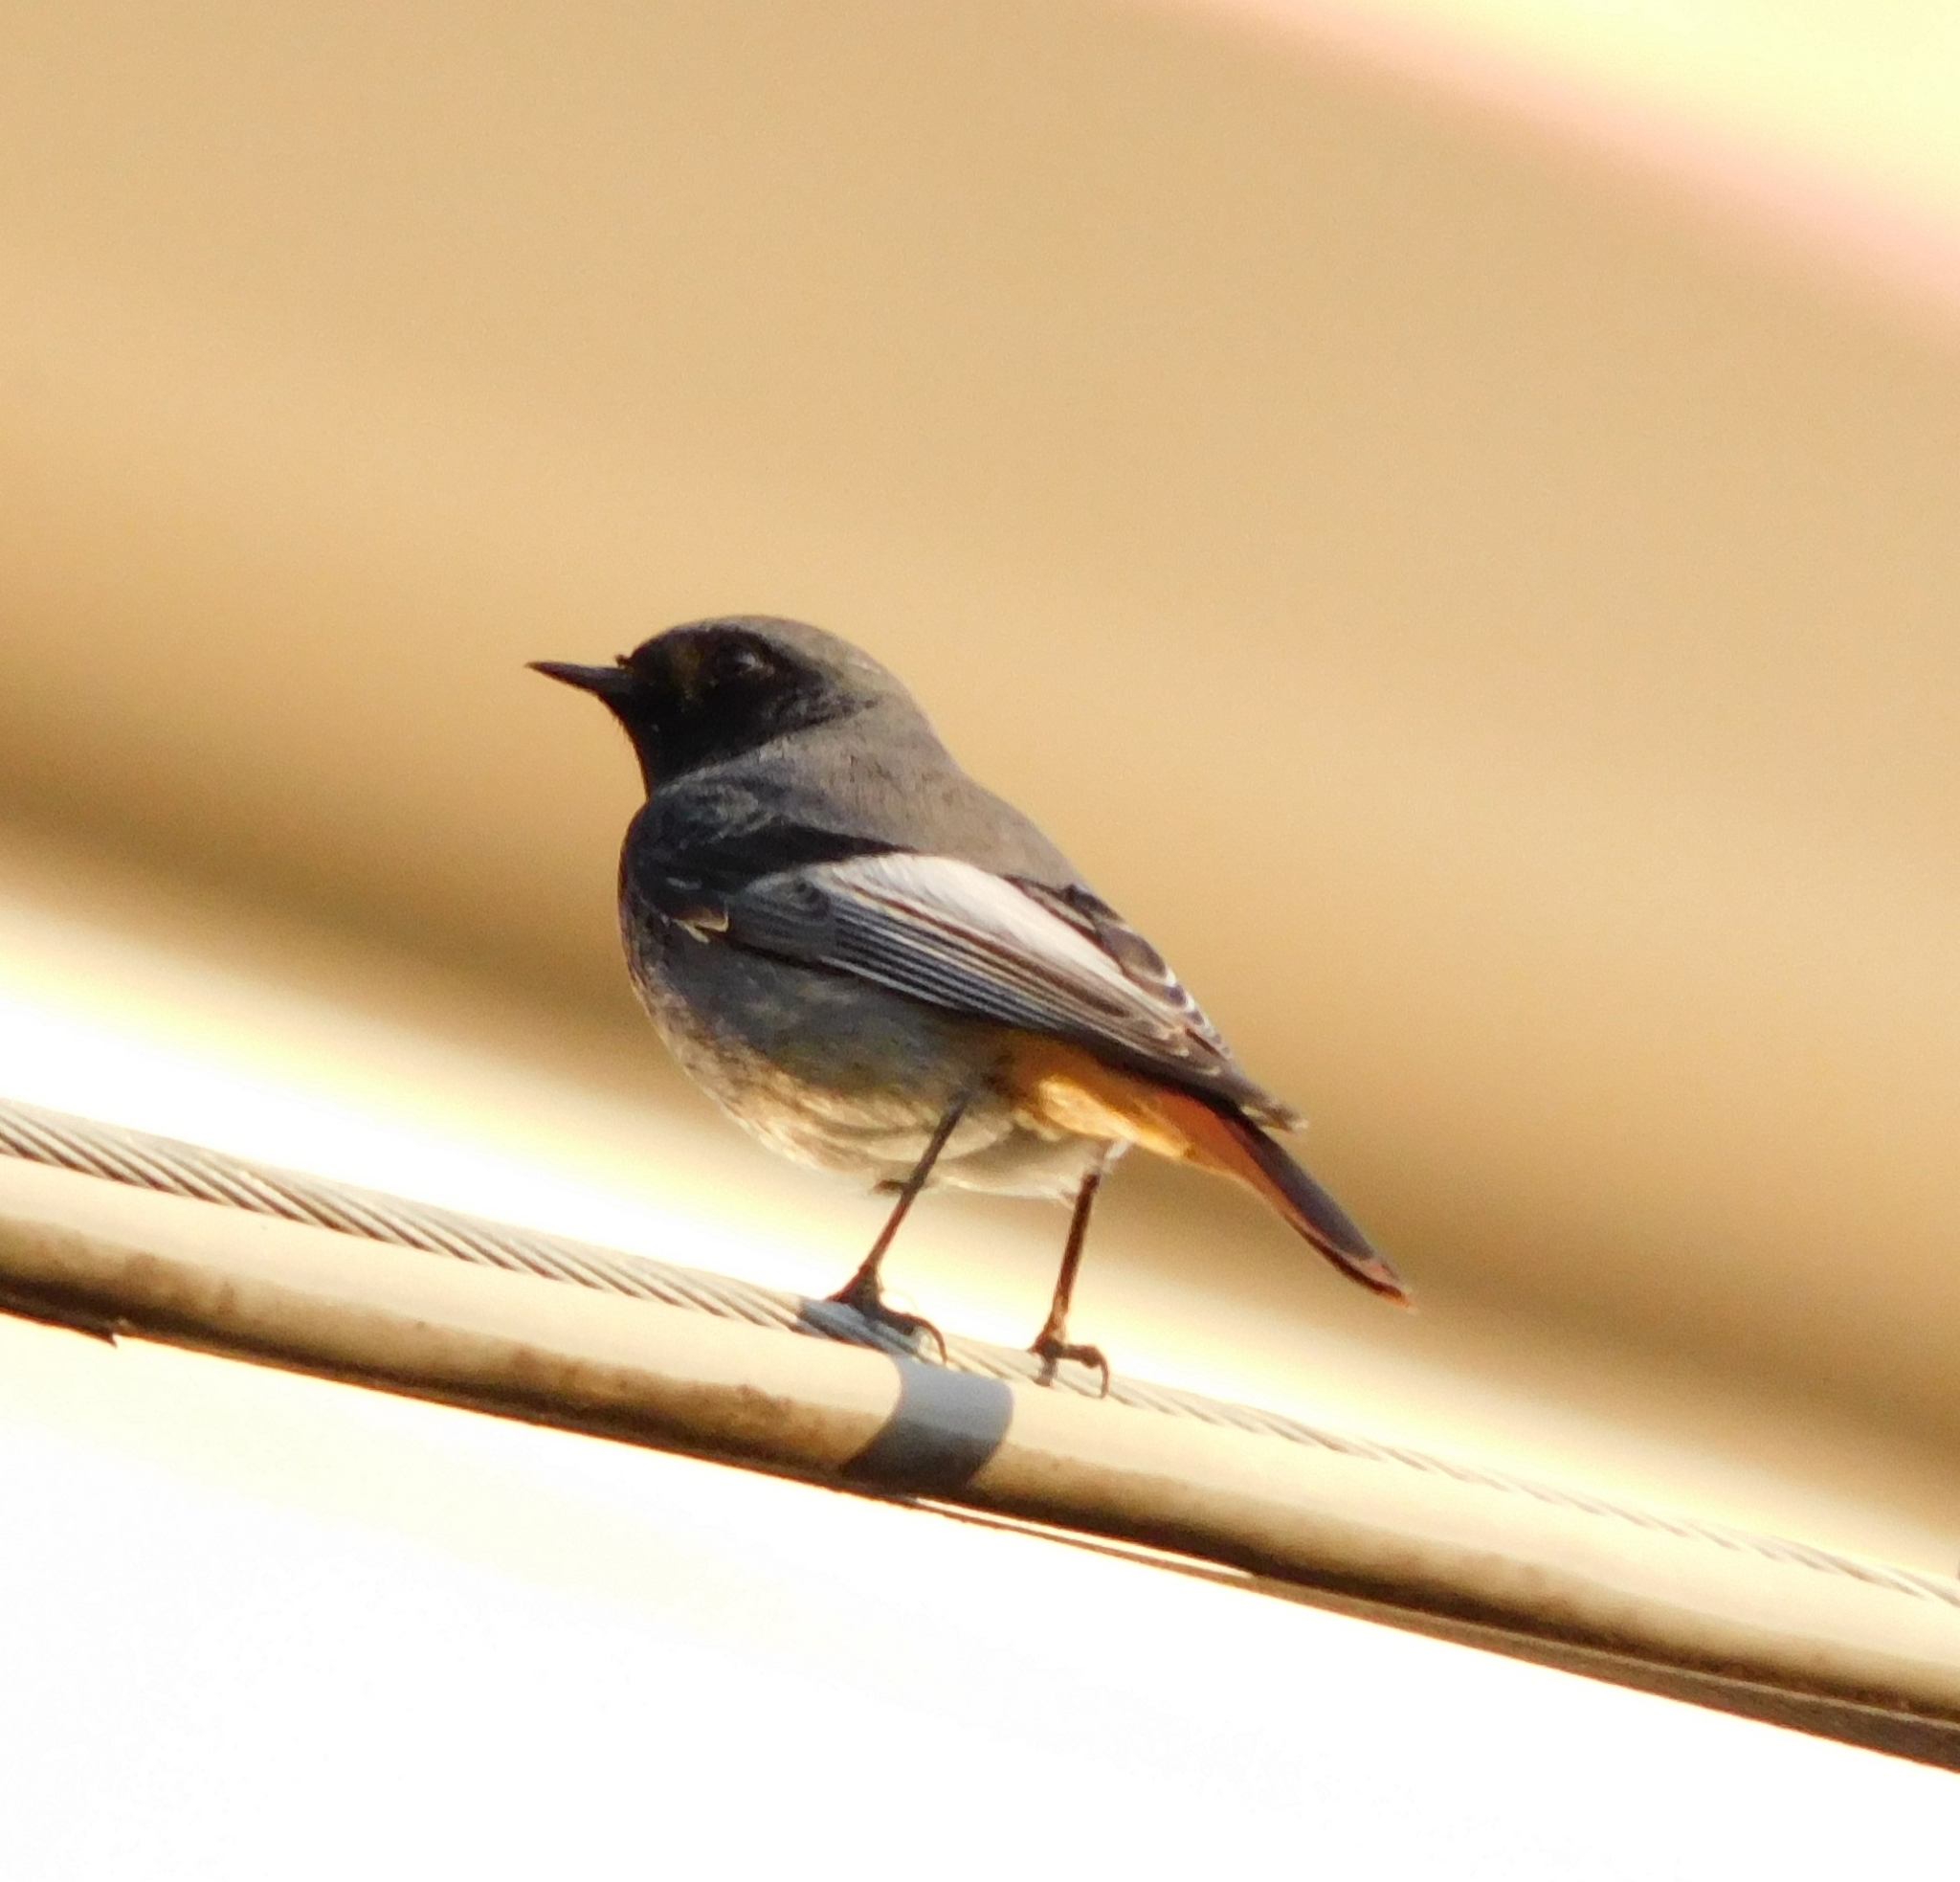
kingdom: Animalia
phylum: Chordata
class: Aves
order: Passeriformes
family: Muscicapidae
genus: Phoenicurus
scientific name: Phoenicurus ochruros
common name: Black redstart
